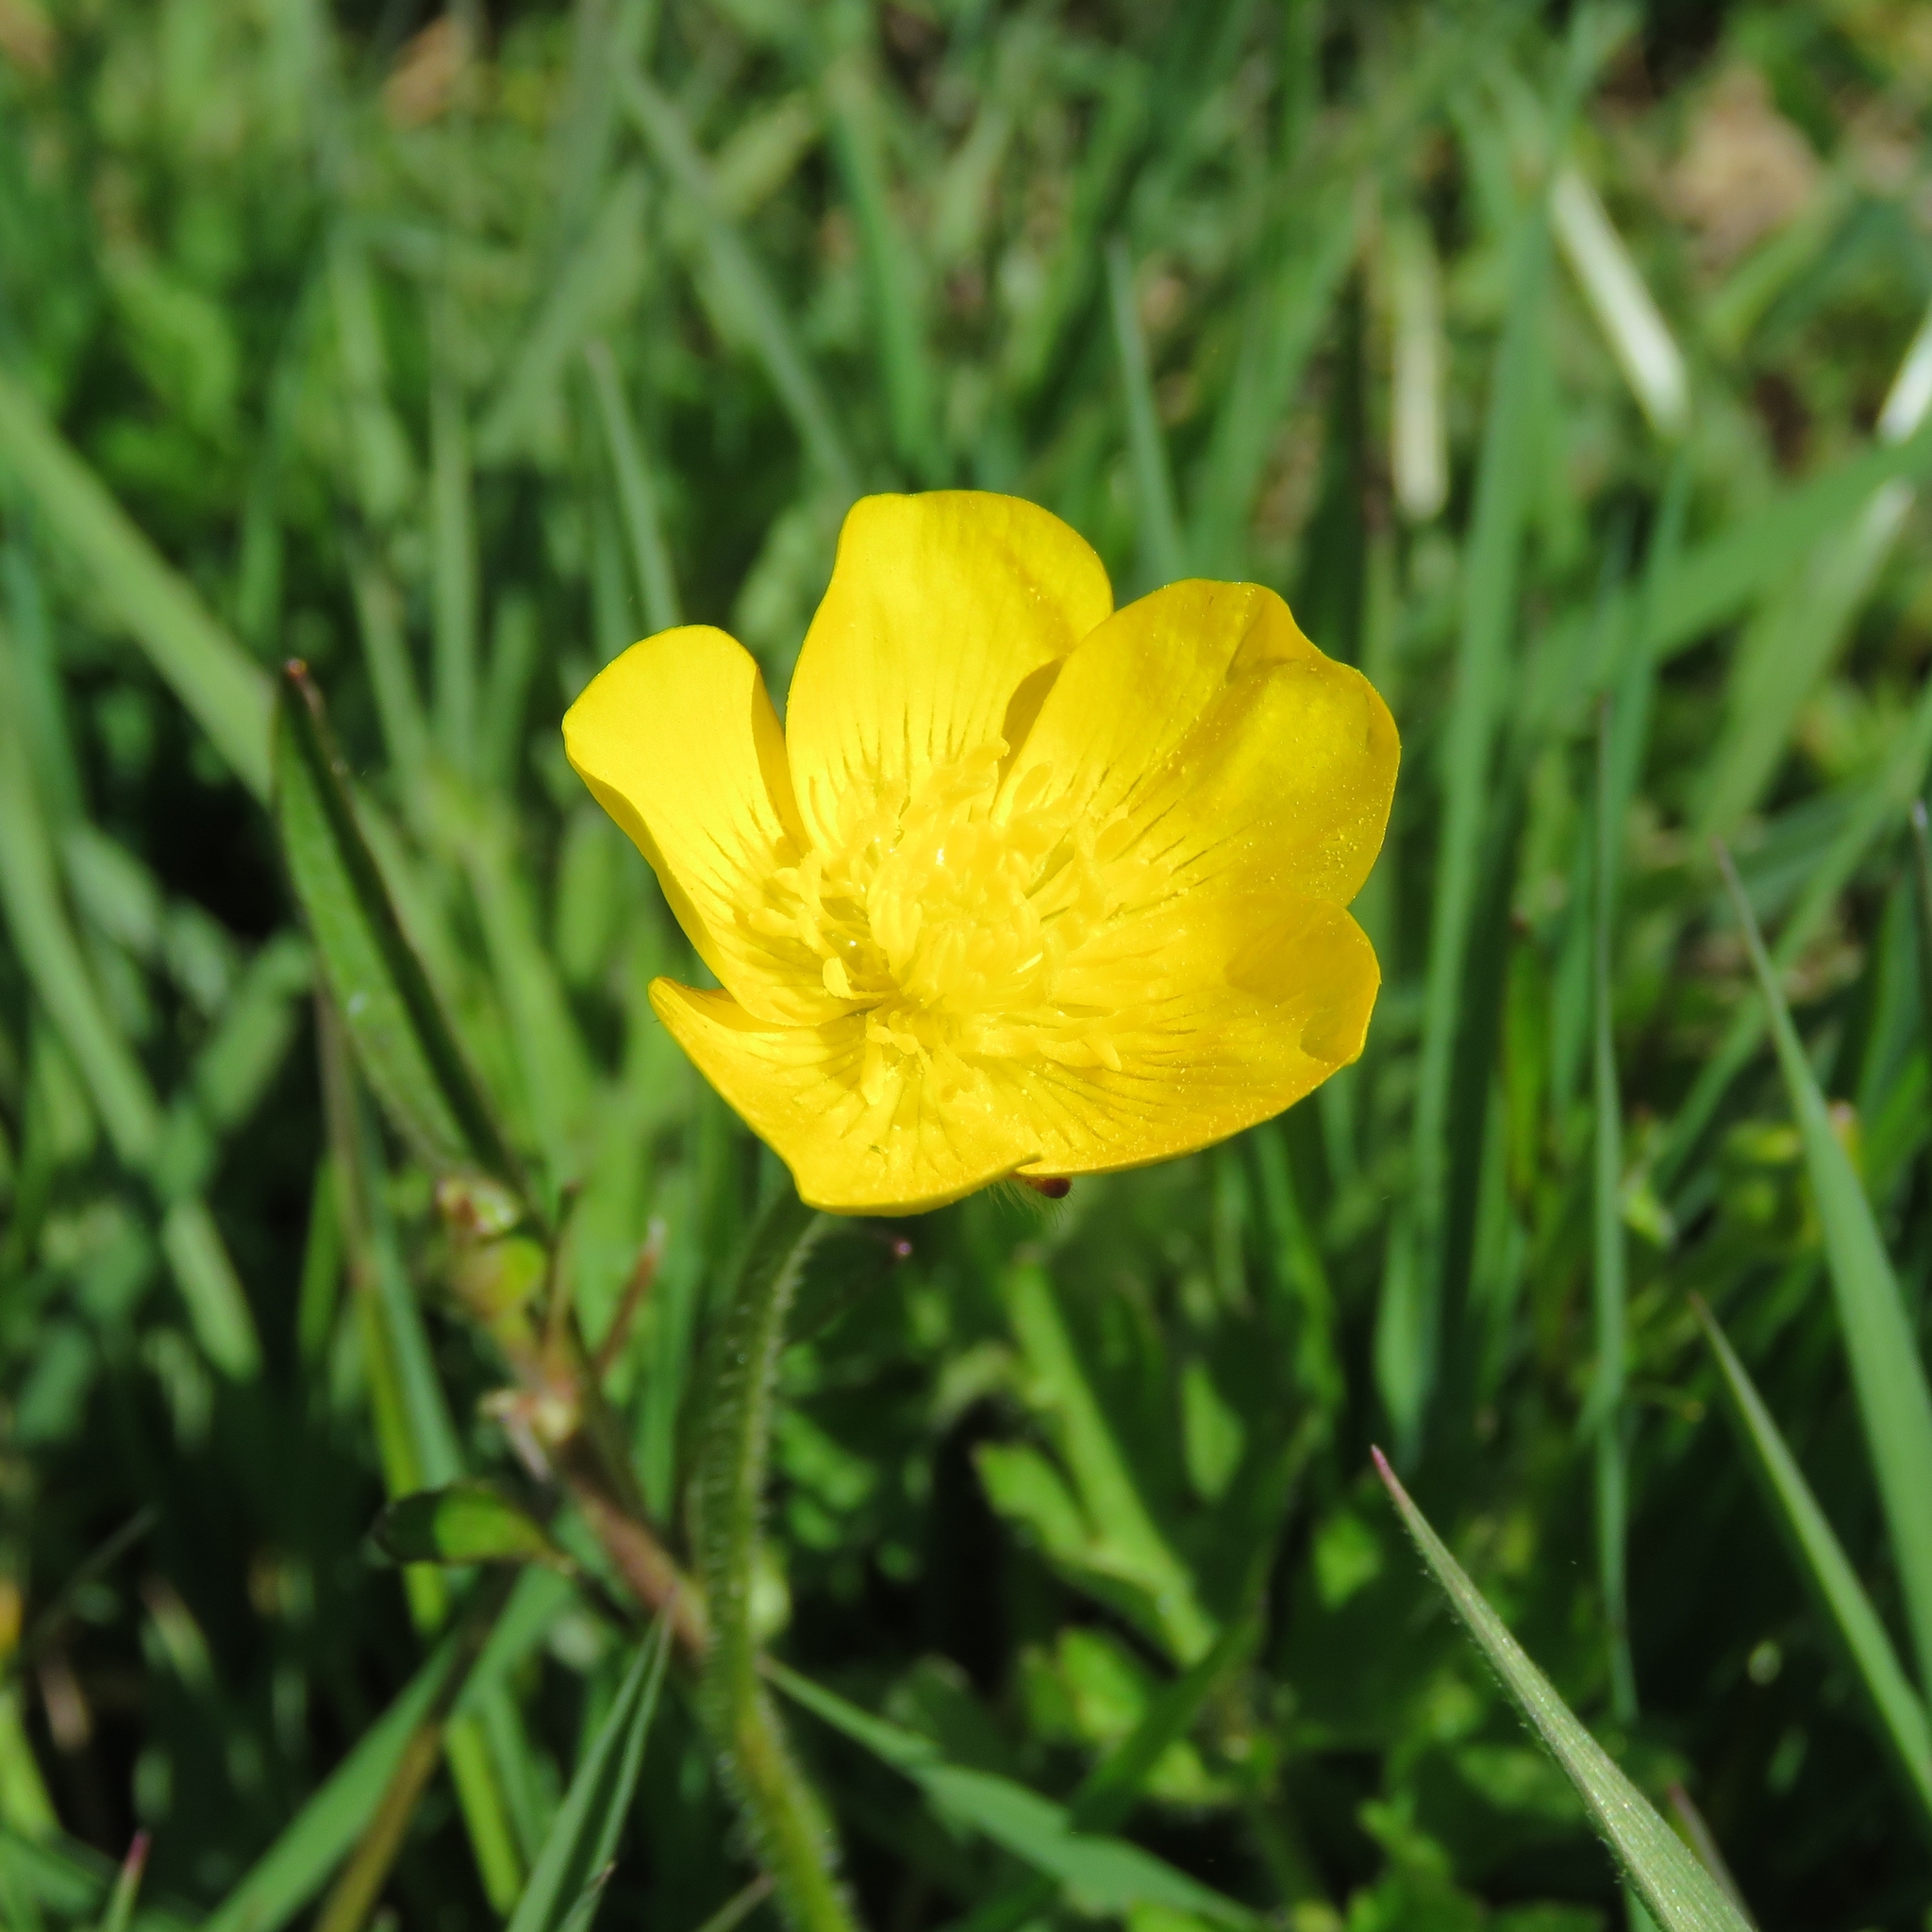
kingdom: Plantae
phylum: Tracheophyta
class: Magnoliopsida
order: Ranunculales
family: Ranunculaceae
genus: Ranunculus
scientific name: Ranunculus repens
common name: Creeping buttercup
